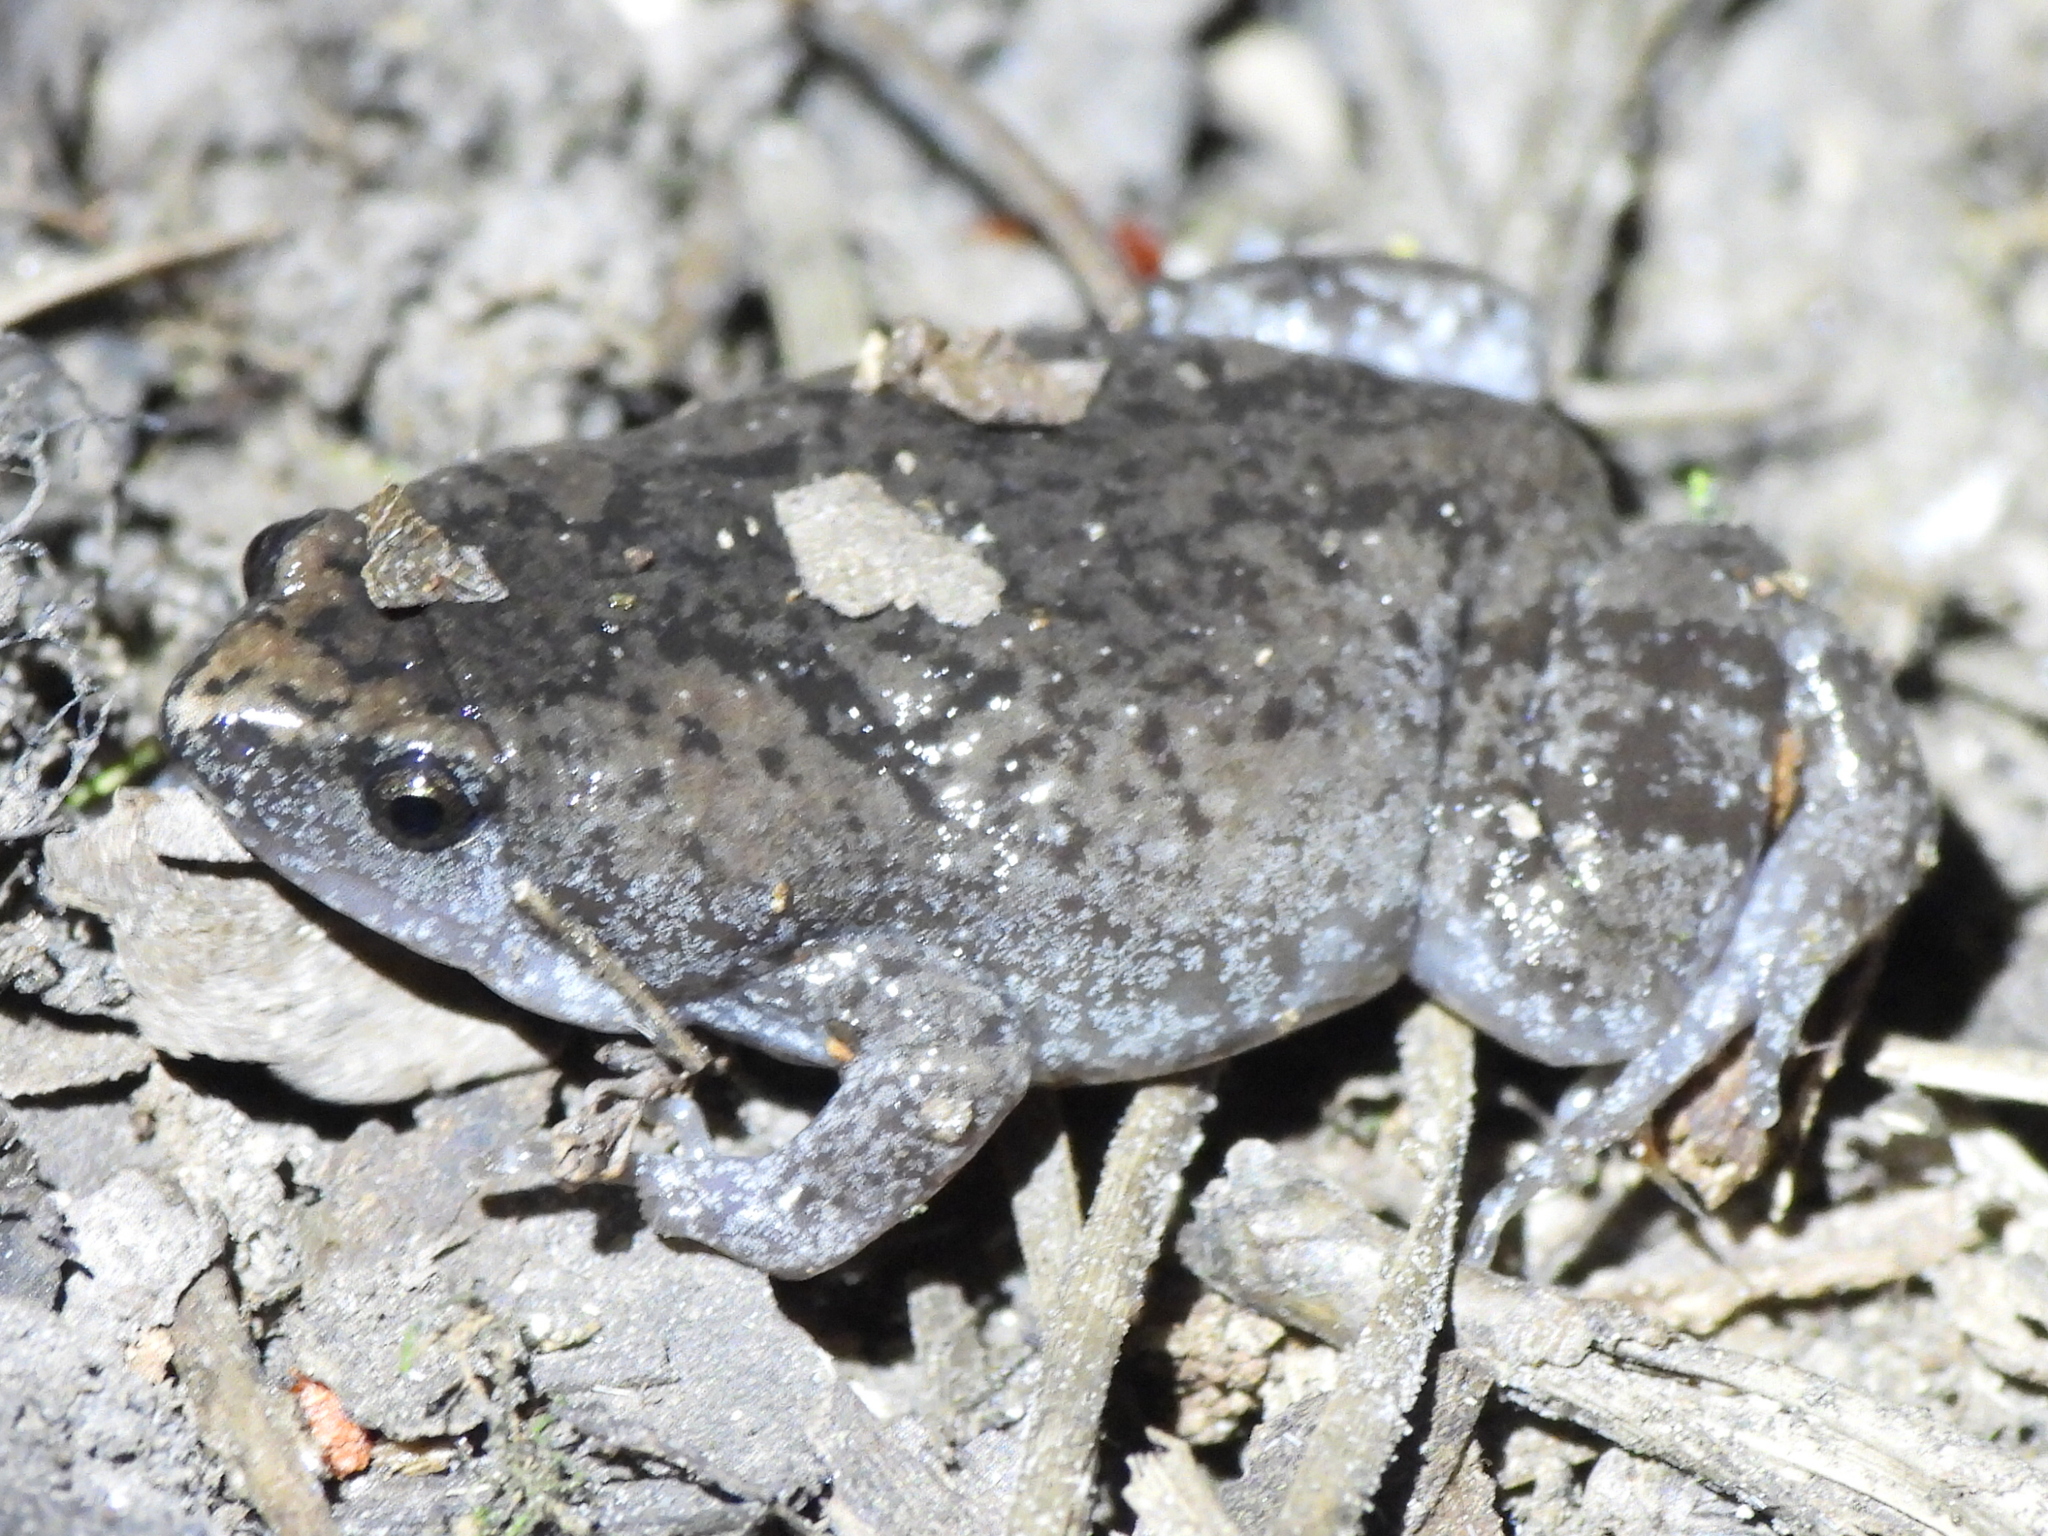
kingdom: Animalia
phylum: Chordata
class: Amphibia
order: Anura
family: Microhylidae
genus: Gastrophryne
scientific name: Gastrophryne carolinensis
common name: Eastern narrowmouth toad
